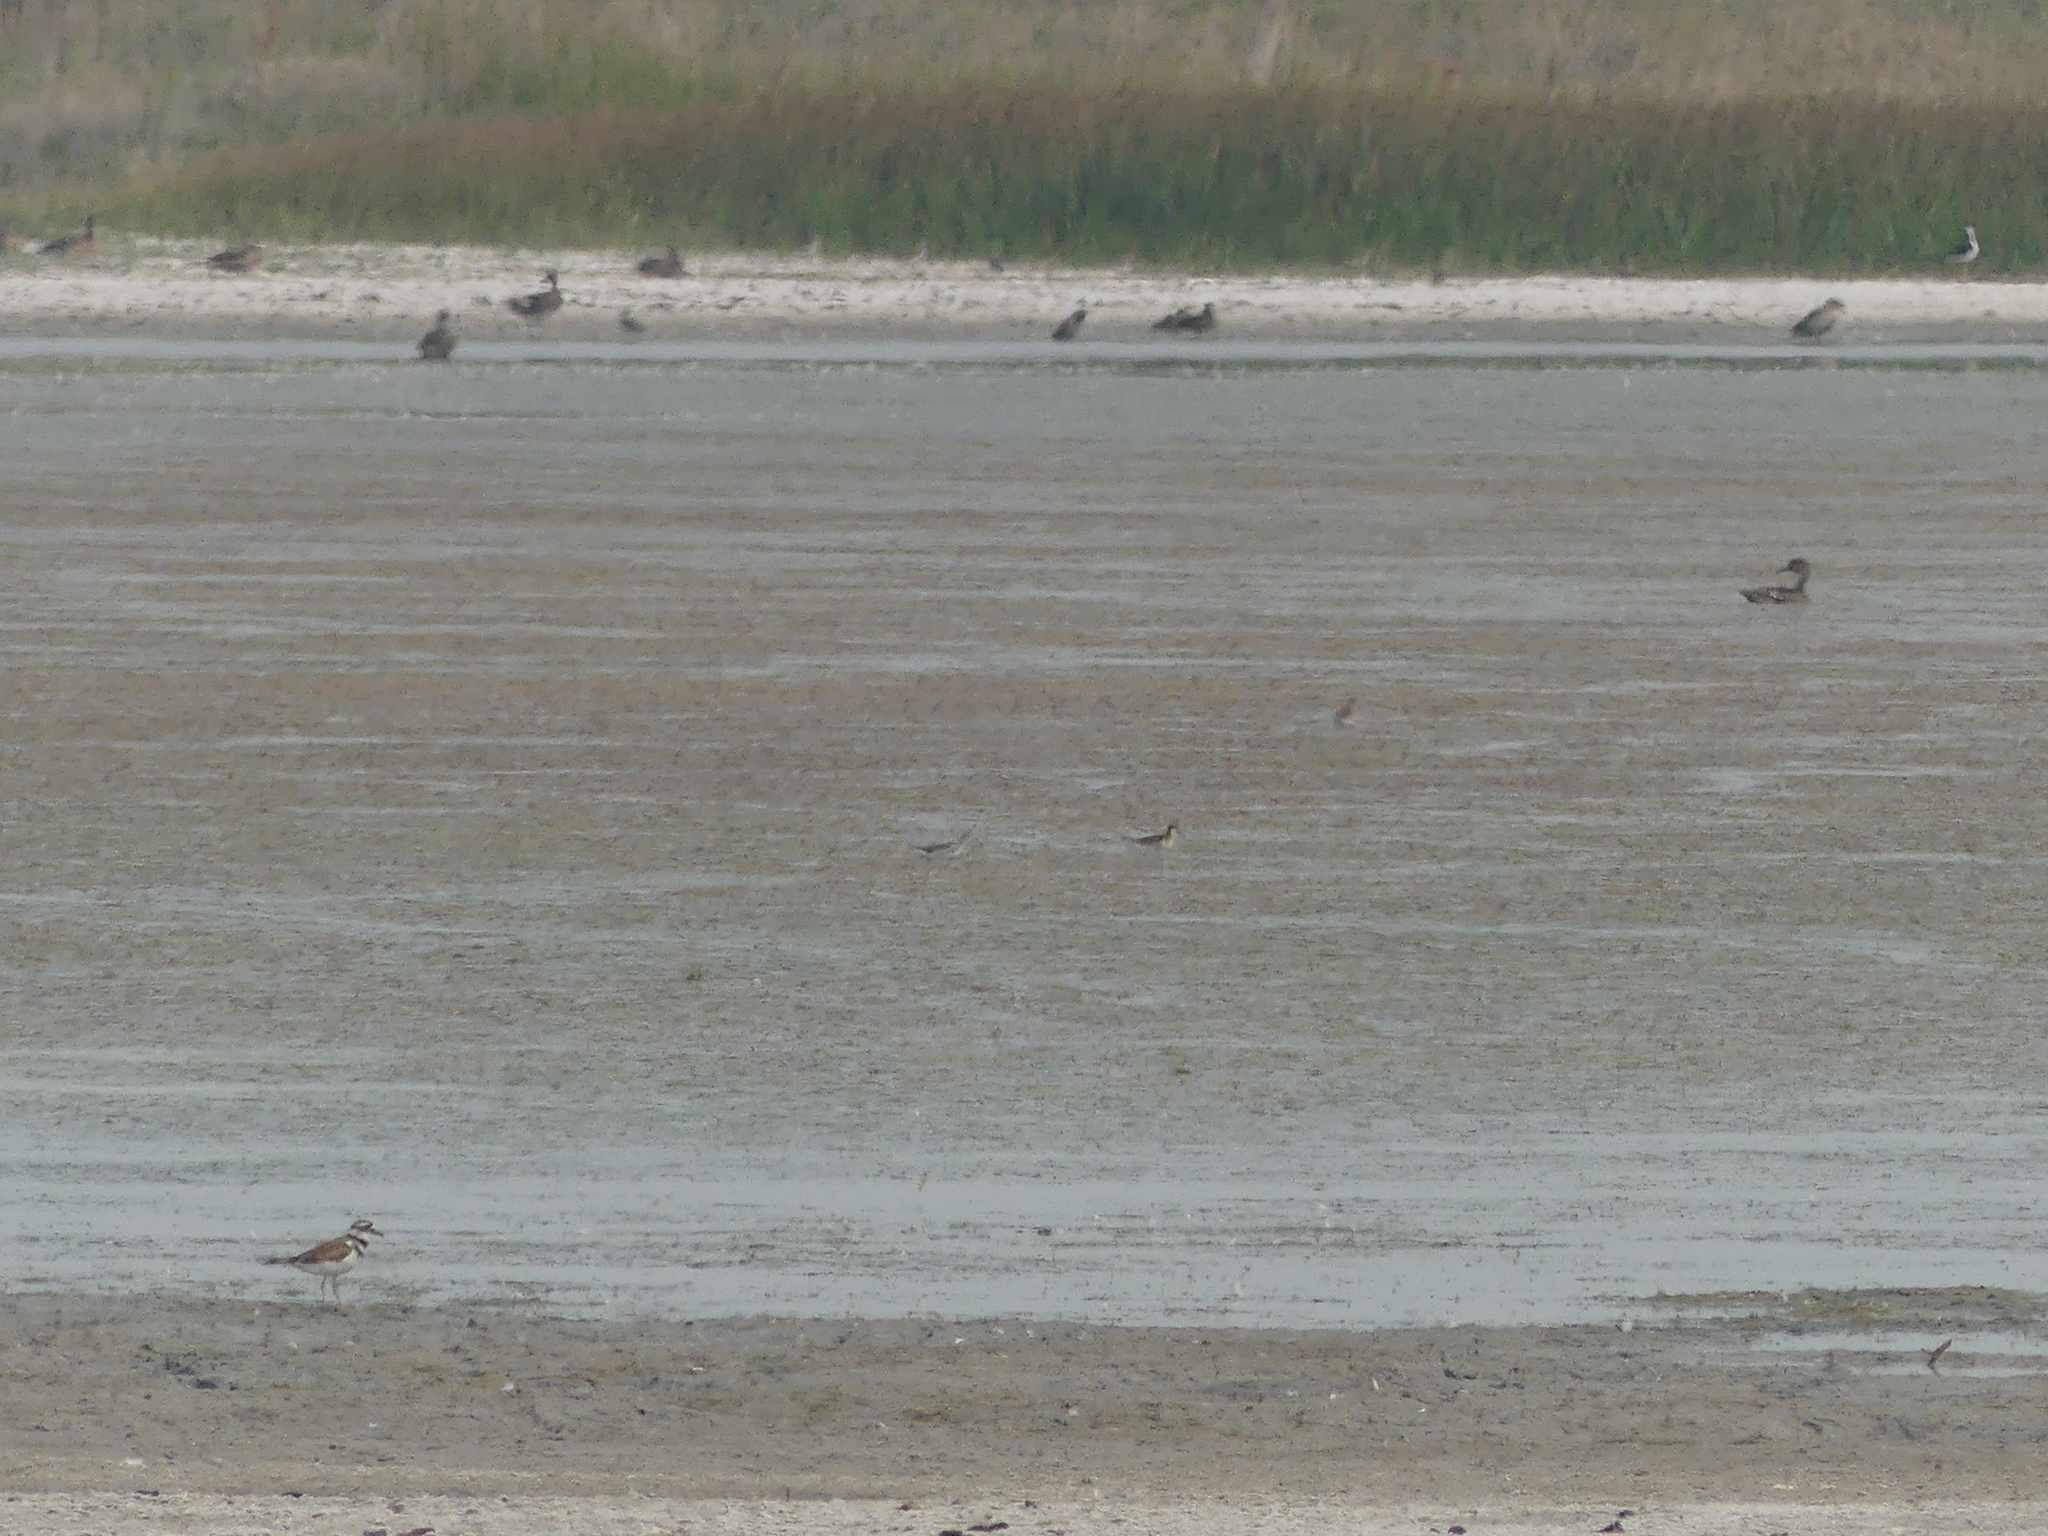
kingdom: Animalia
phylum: Chordata
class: Aves
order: Charadriiformes
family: Scolopacidae
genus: Phalaropus
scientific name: Phalaropus tricolor
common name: Wilson's phalarope
